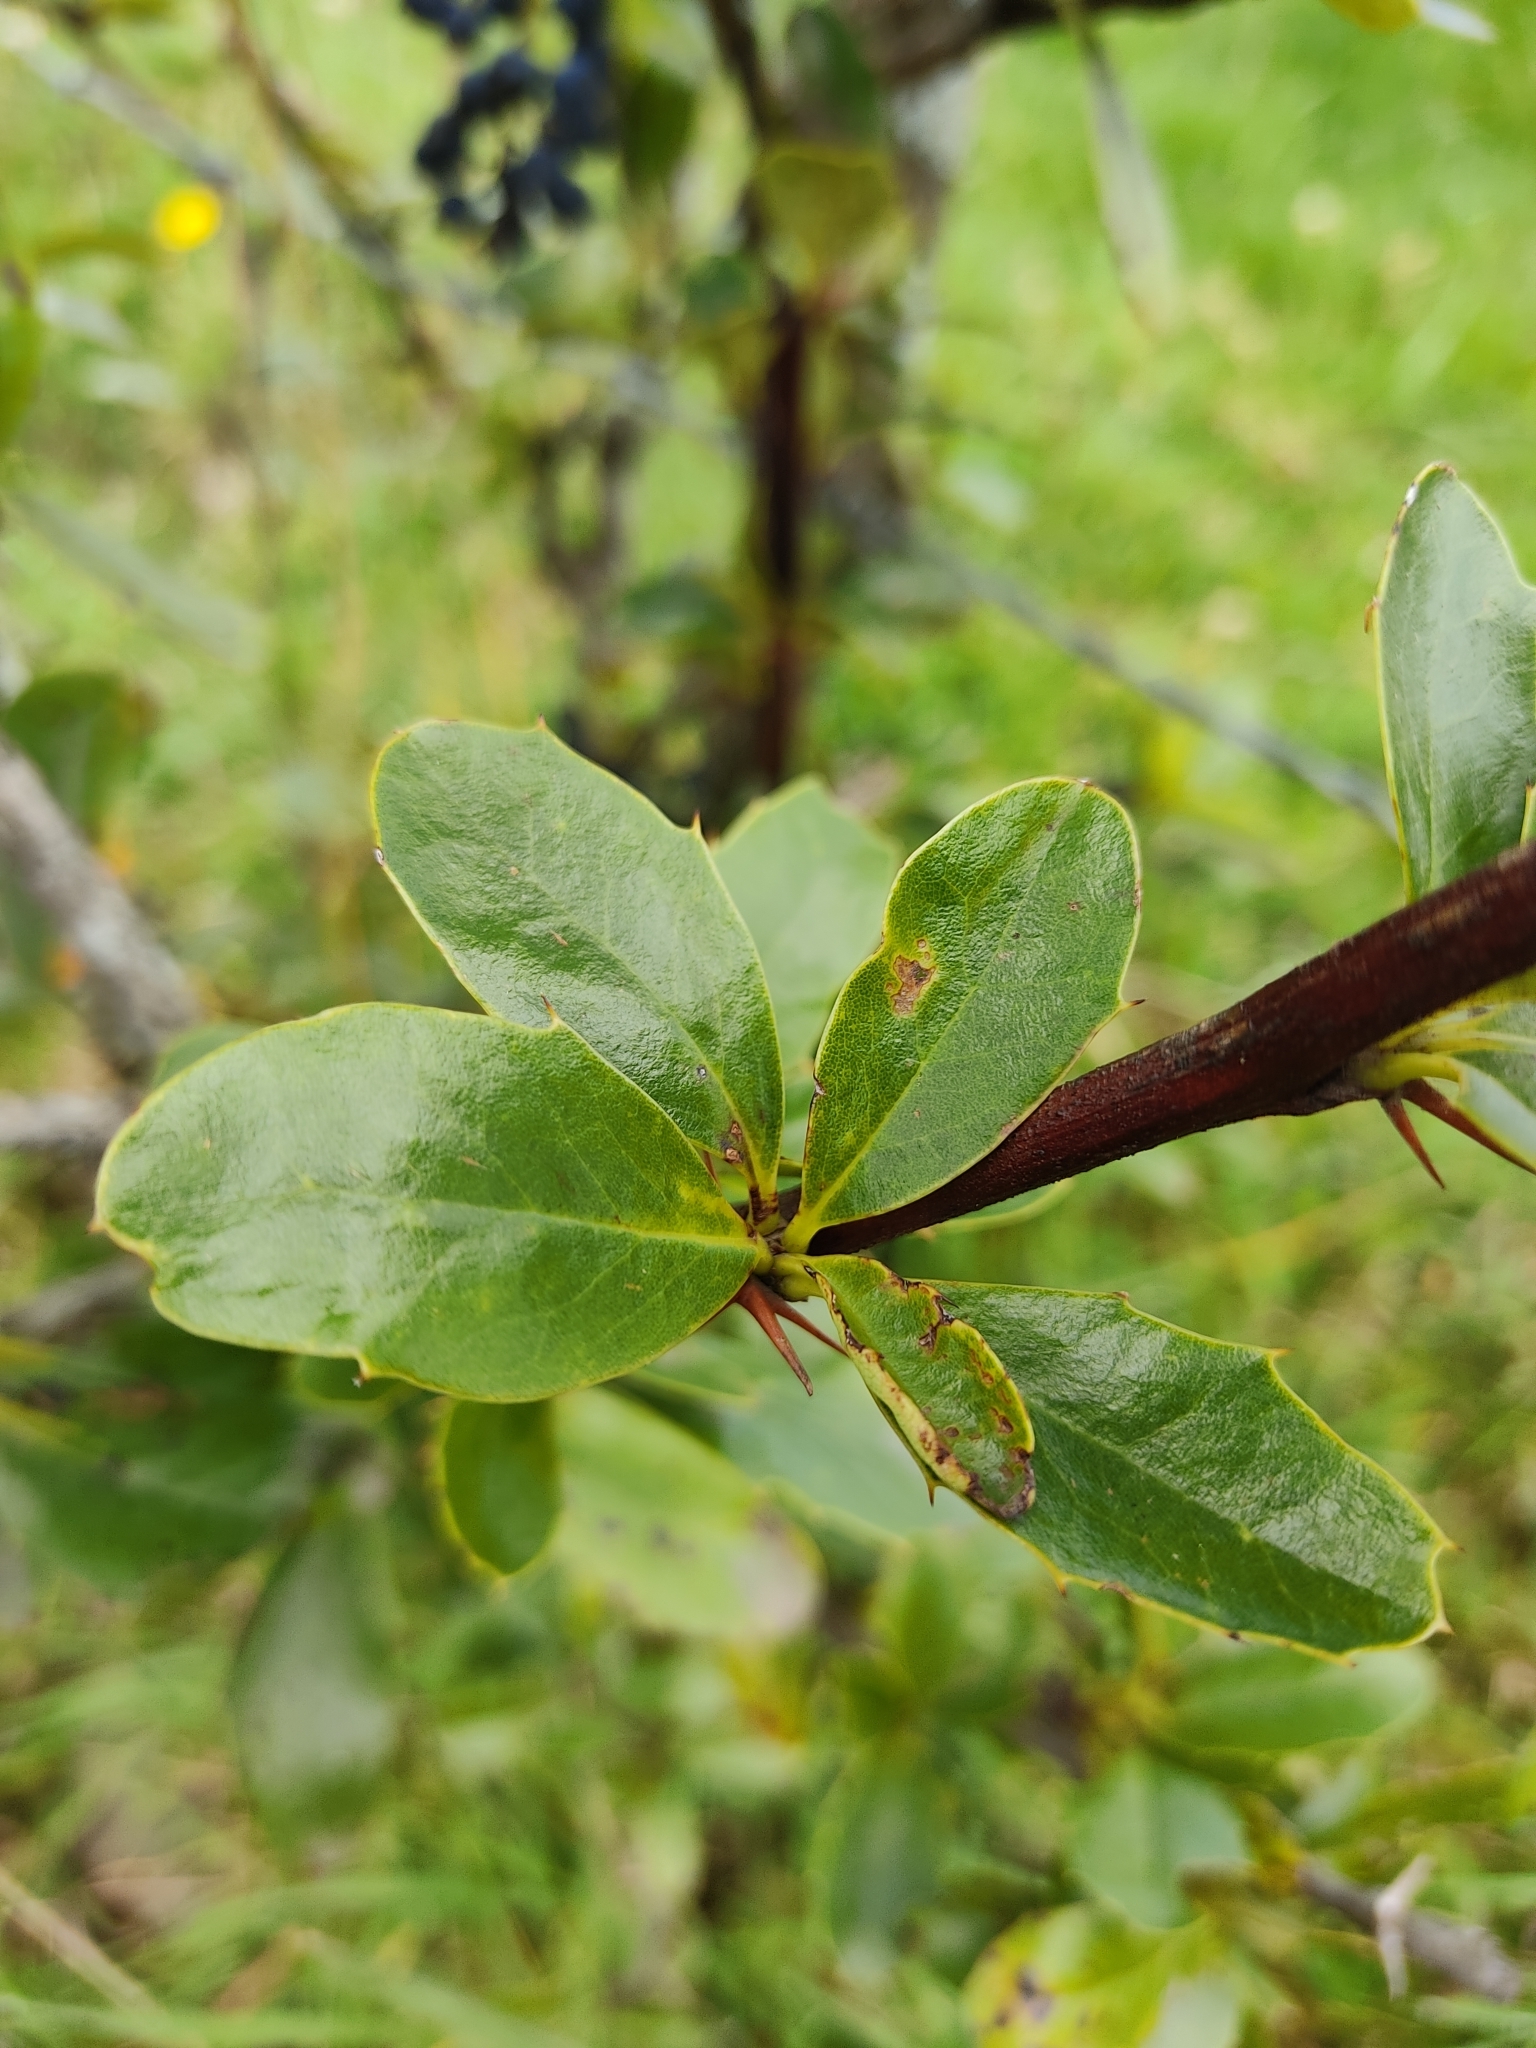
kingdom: Plantae
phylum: Tracheophyta
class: Magnoliopsida
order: Ranunculales
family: Berberidaceae
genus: Berberis
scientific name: Berberis hallii
